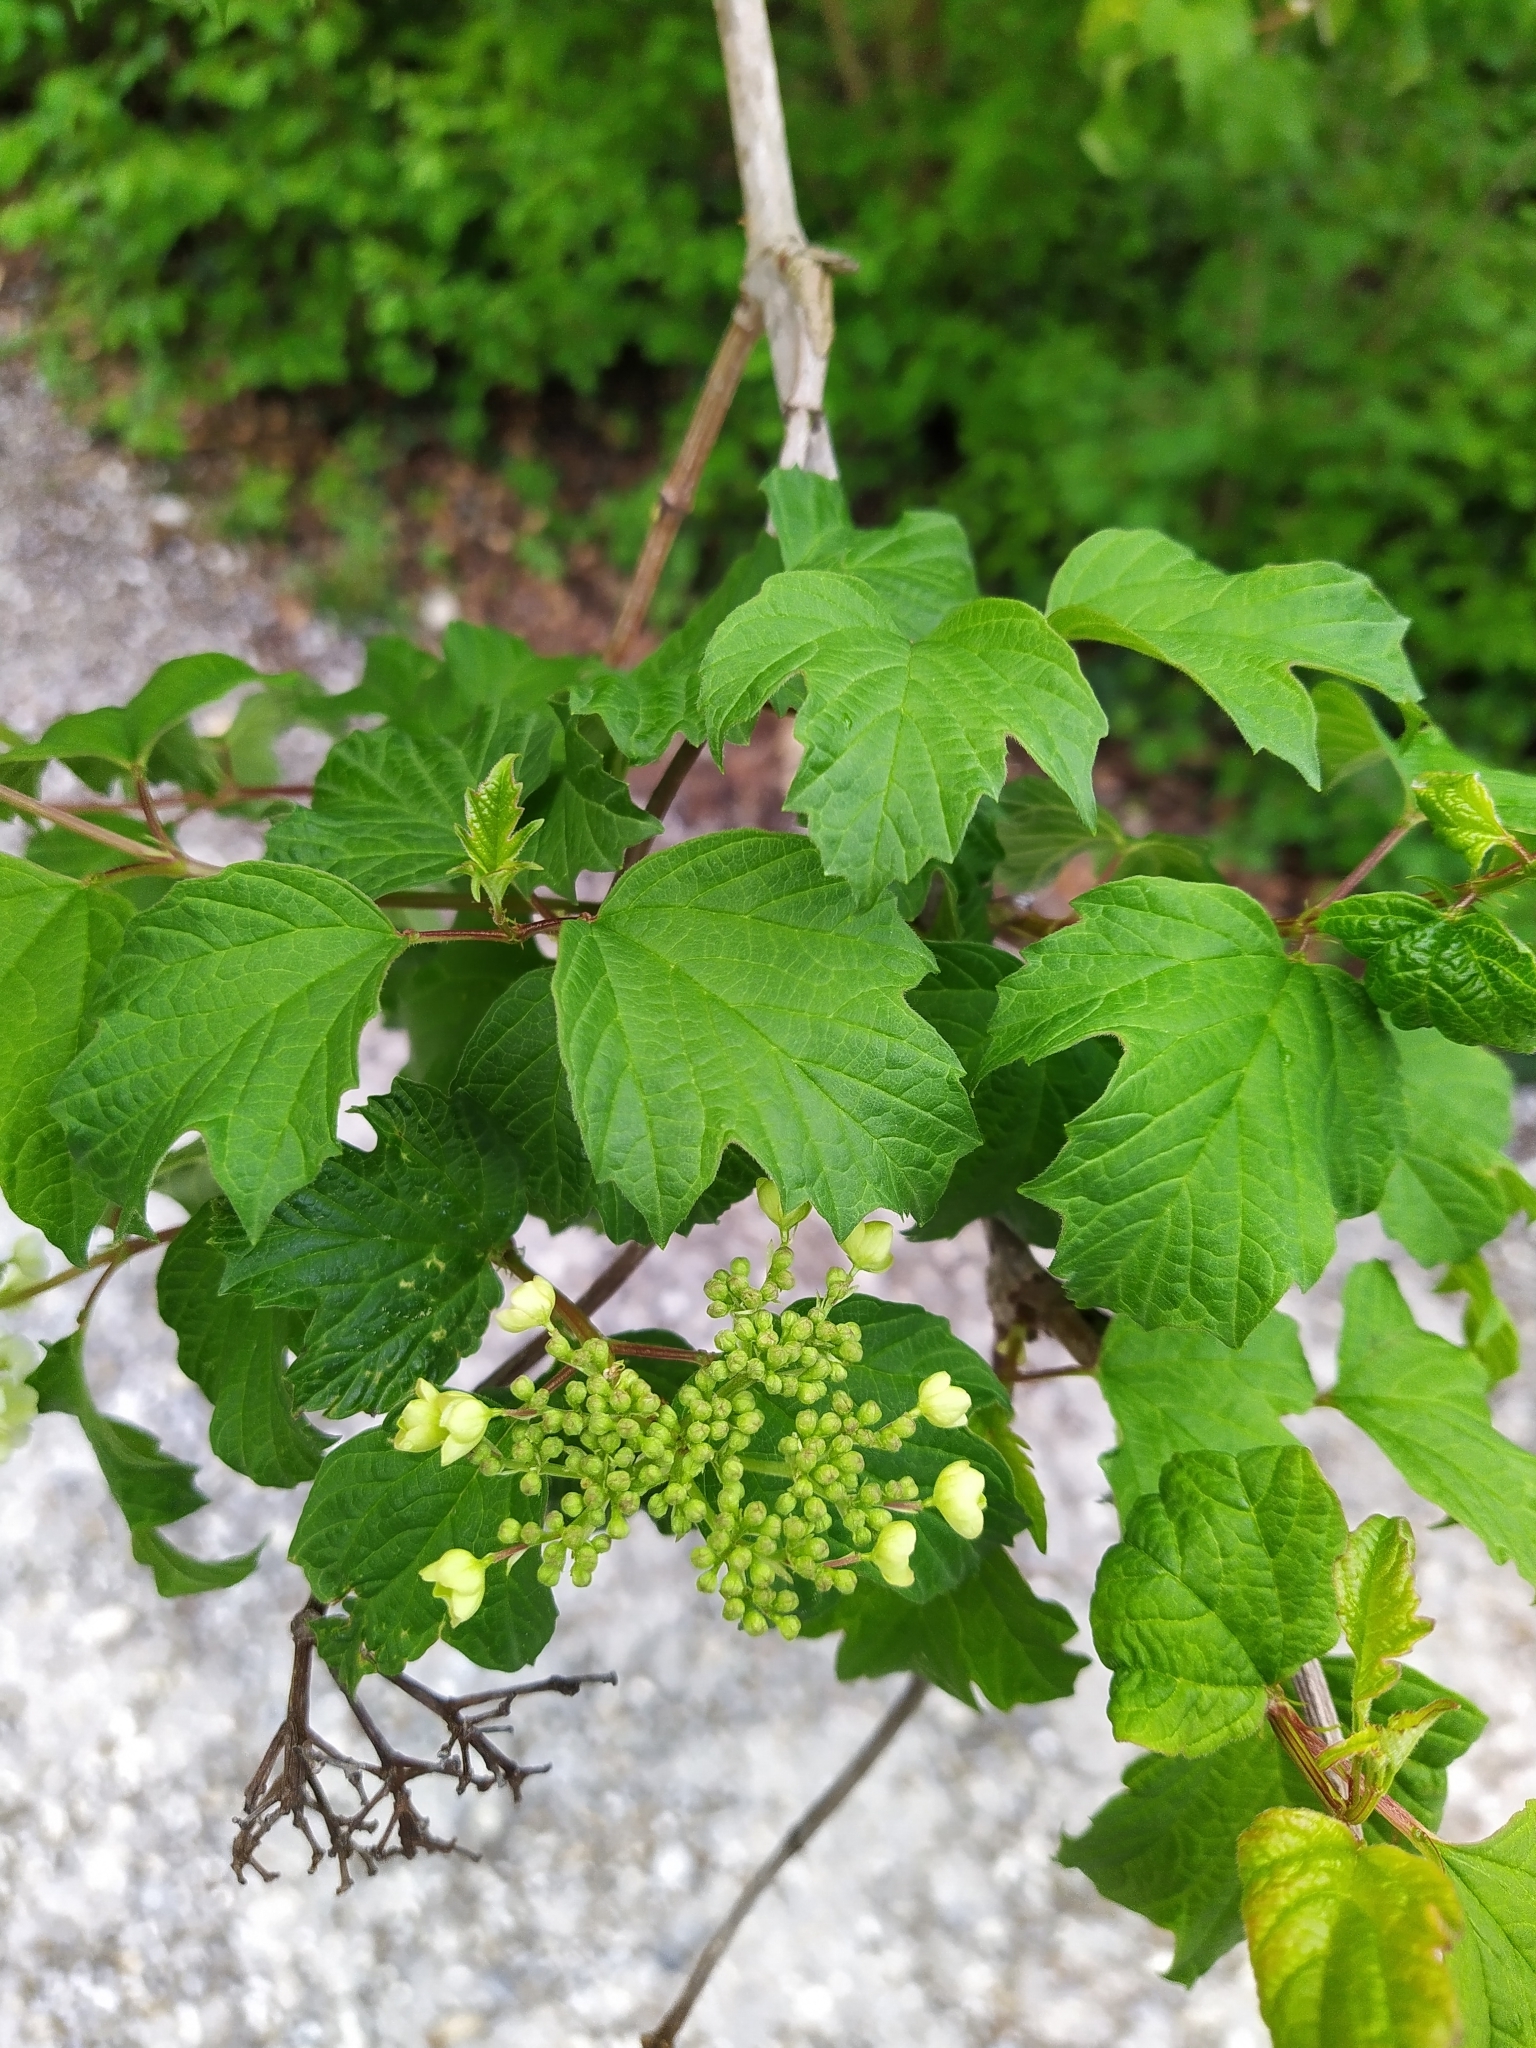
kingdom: Plantae
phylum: Tracheophyta
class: Magnoliopsida
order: Dipsacales
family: Viburnaceae
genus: Viburnum
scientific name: Viburnum opulus
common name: Guelder-rose
